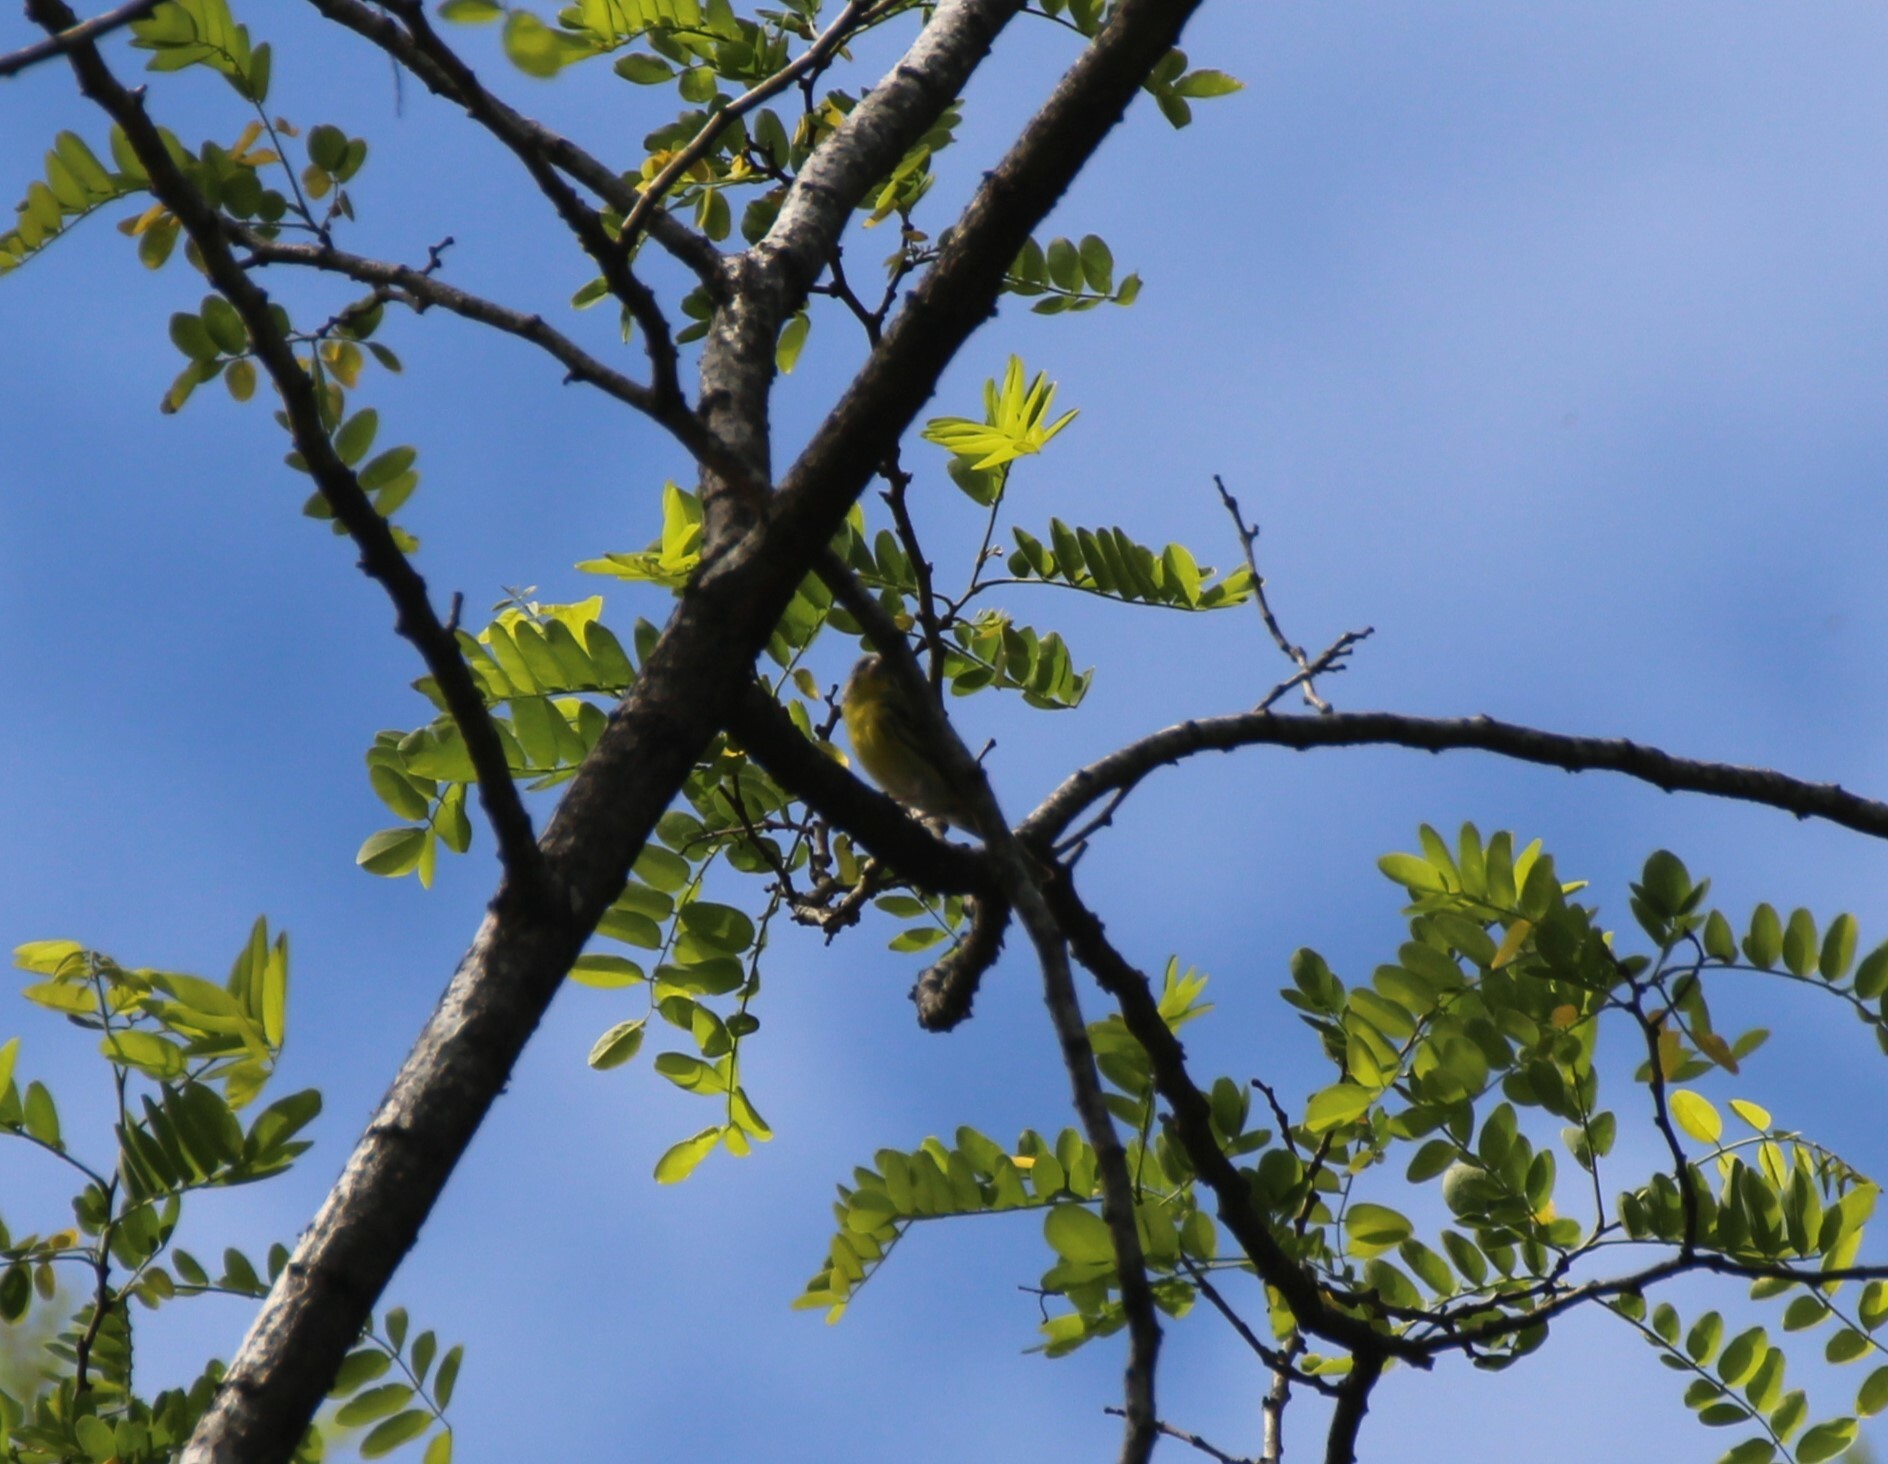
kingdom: Animalia
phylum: Chordata
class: Aves
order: Passeriformes
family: Fringillidae
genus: Serinus
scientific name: Serinus serinus
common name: European serin
